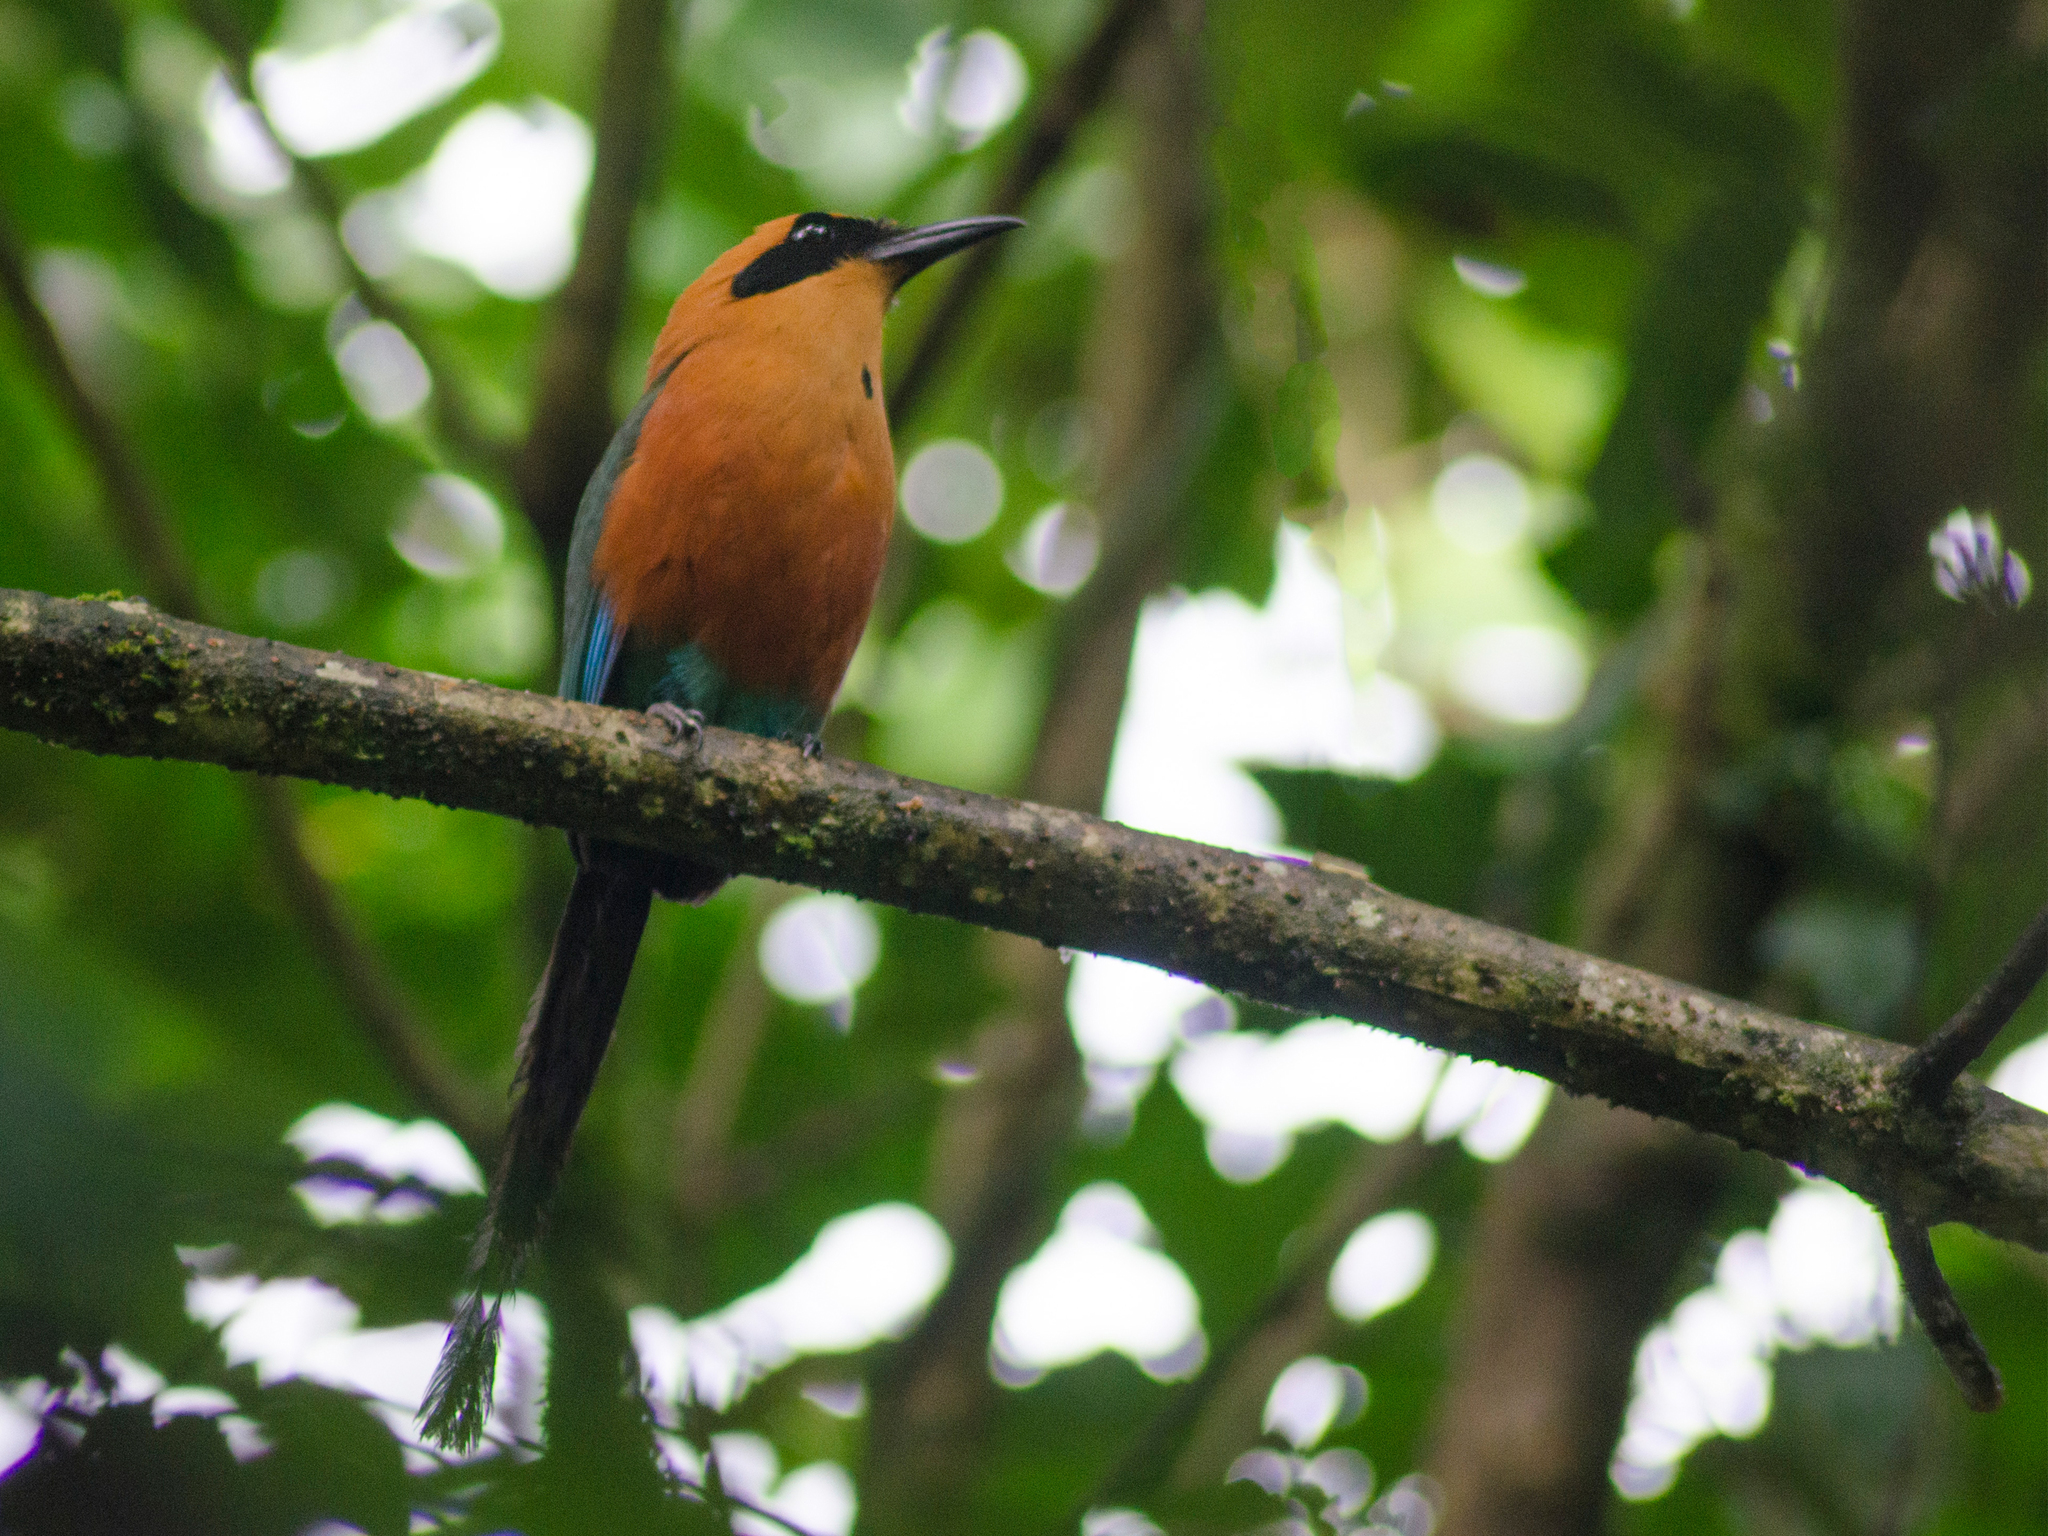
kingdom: Animalia
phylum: Chordata
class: Aves
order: Coraciiformes
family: Momotidae
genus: Baryphthengus
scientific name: Baryphthengus martii
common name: Rufous motmot
